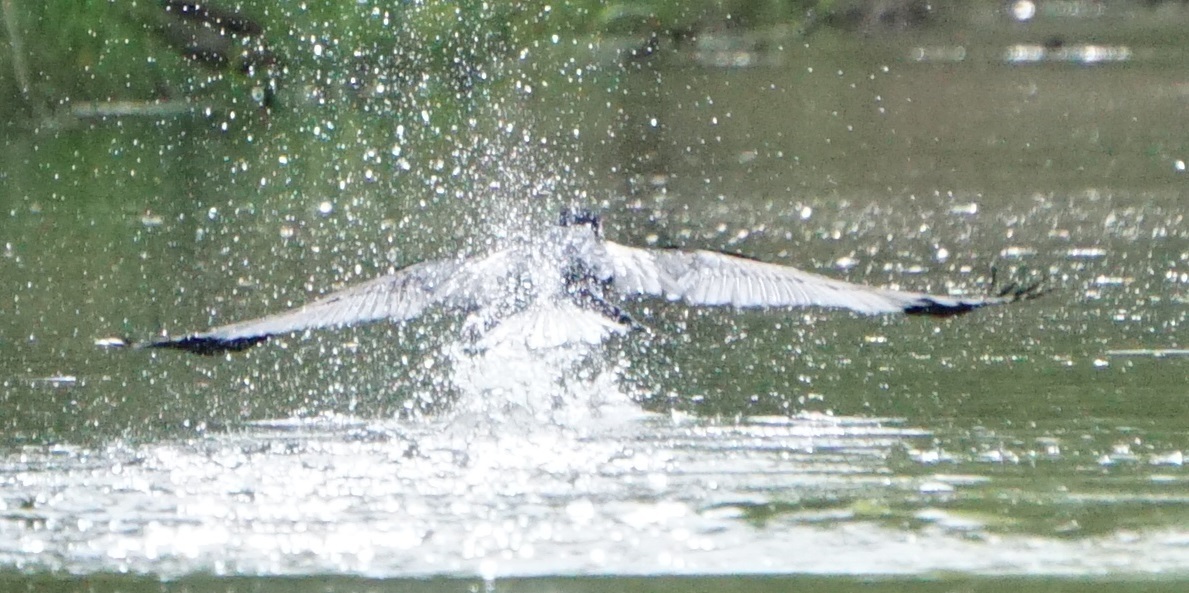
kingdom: Animalia
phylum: Chordata
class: Aves
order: Suliformes
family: Phalacrocoracidae
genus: Phalacrocorax
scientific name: Phalacrocorax carbo
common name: Great cormorant
